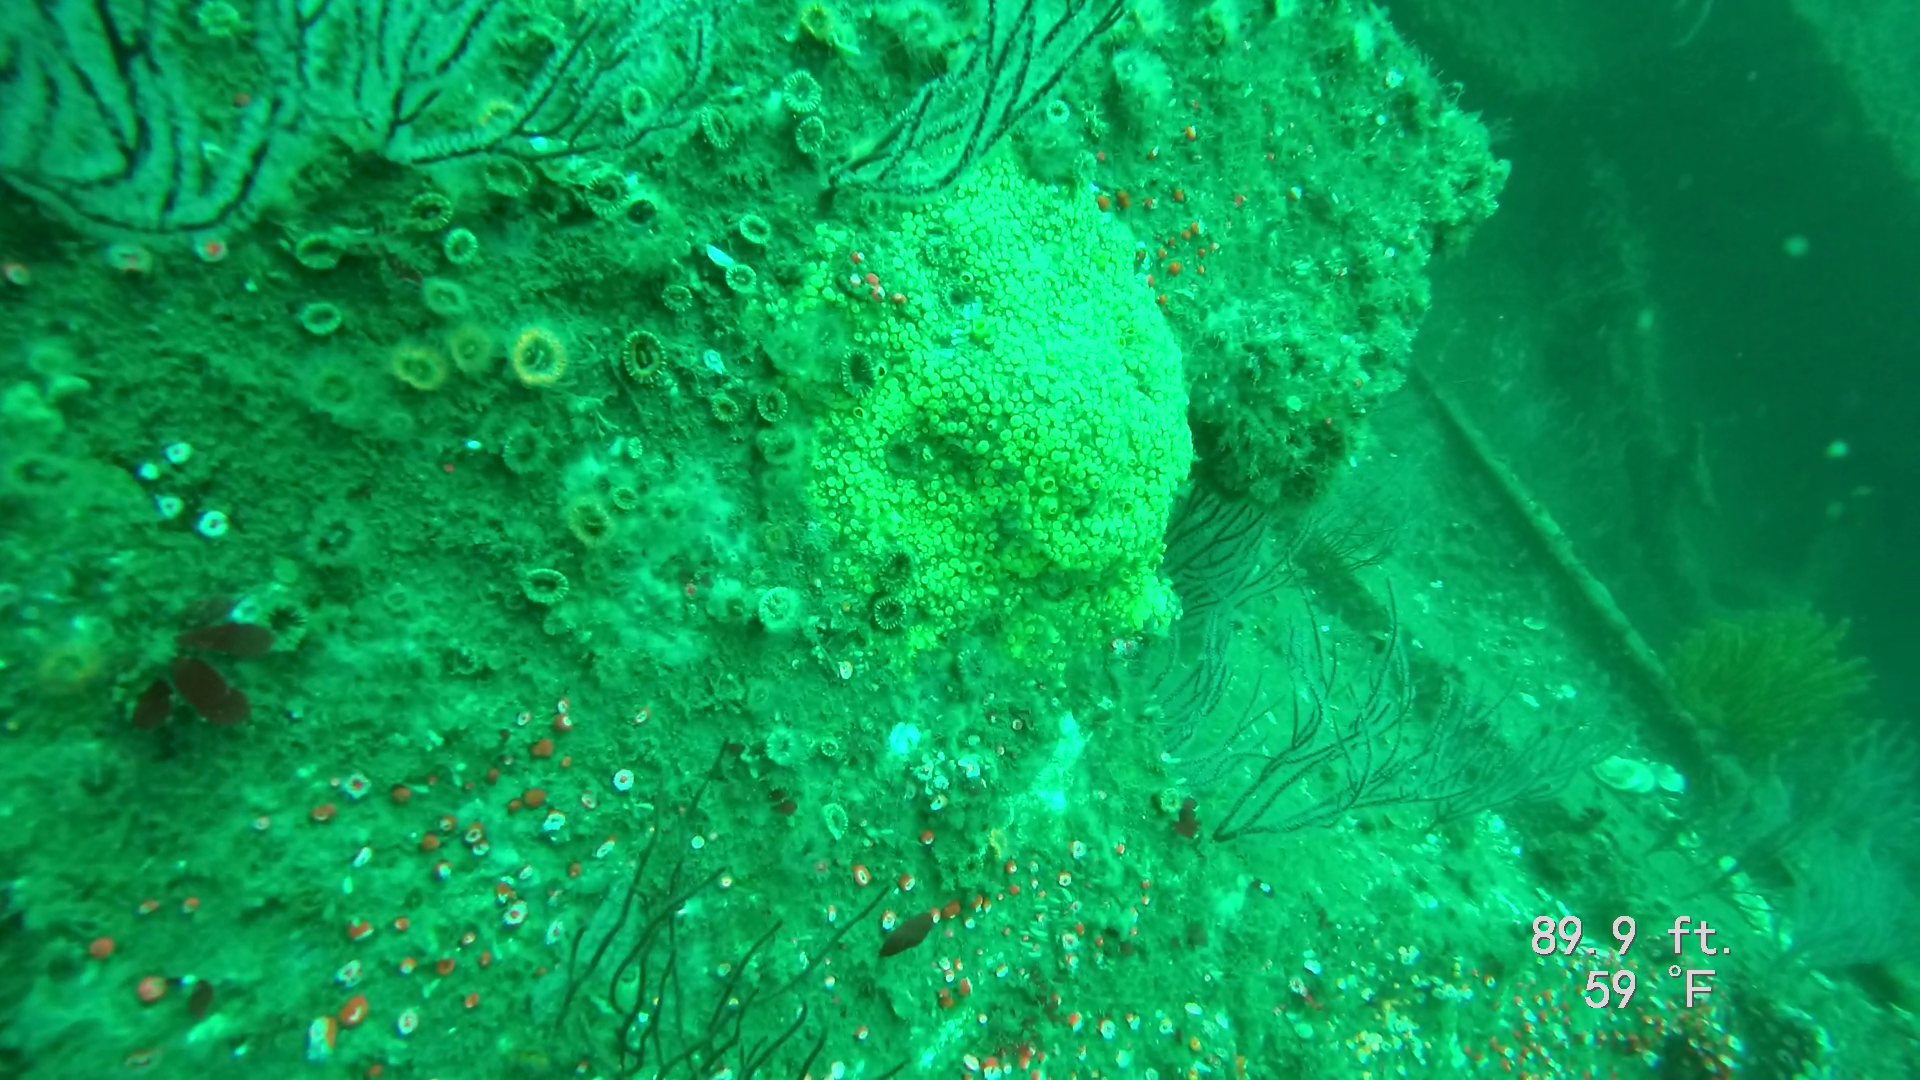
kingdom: Animalia
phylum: Porifera
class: Demospongiae
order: Clionaida
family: Clionaidae
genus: Cliona
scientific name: Cliona californiana
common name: California boring horny sponge
